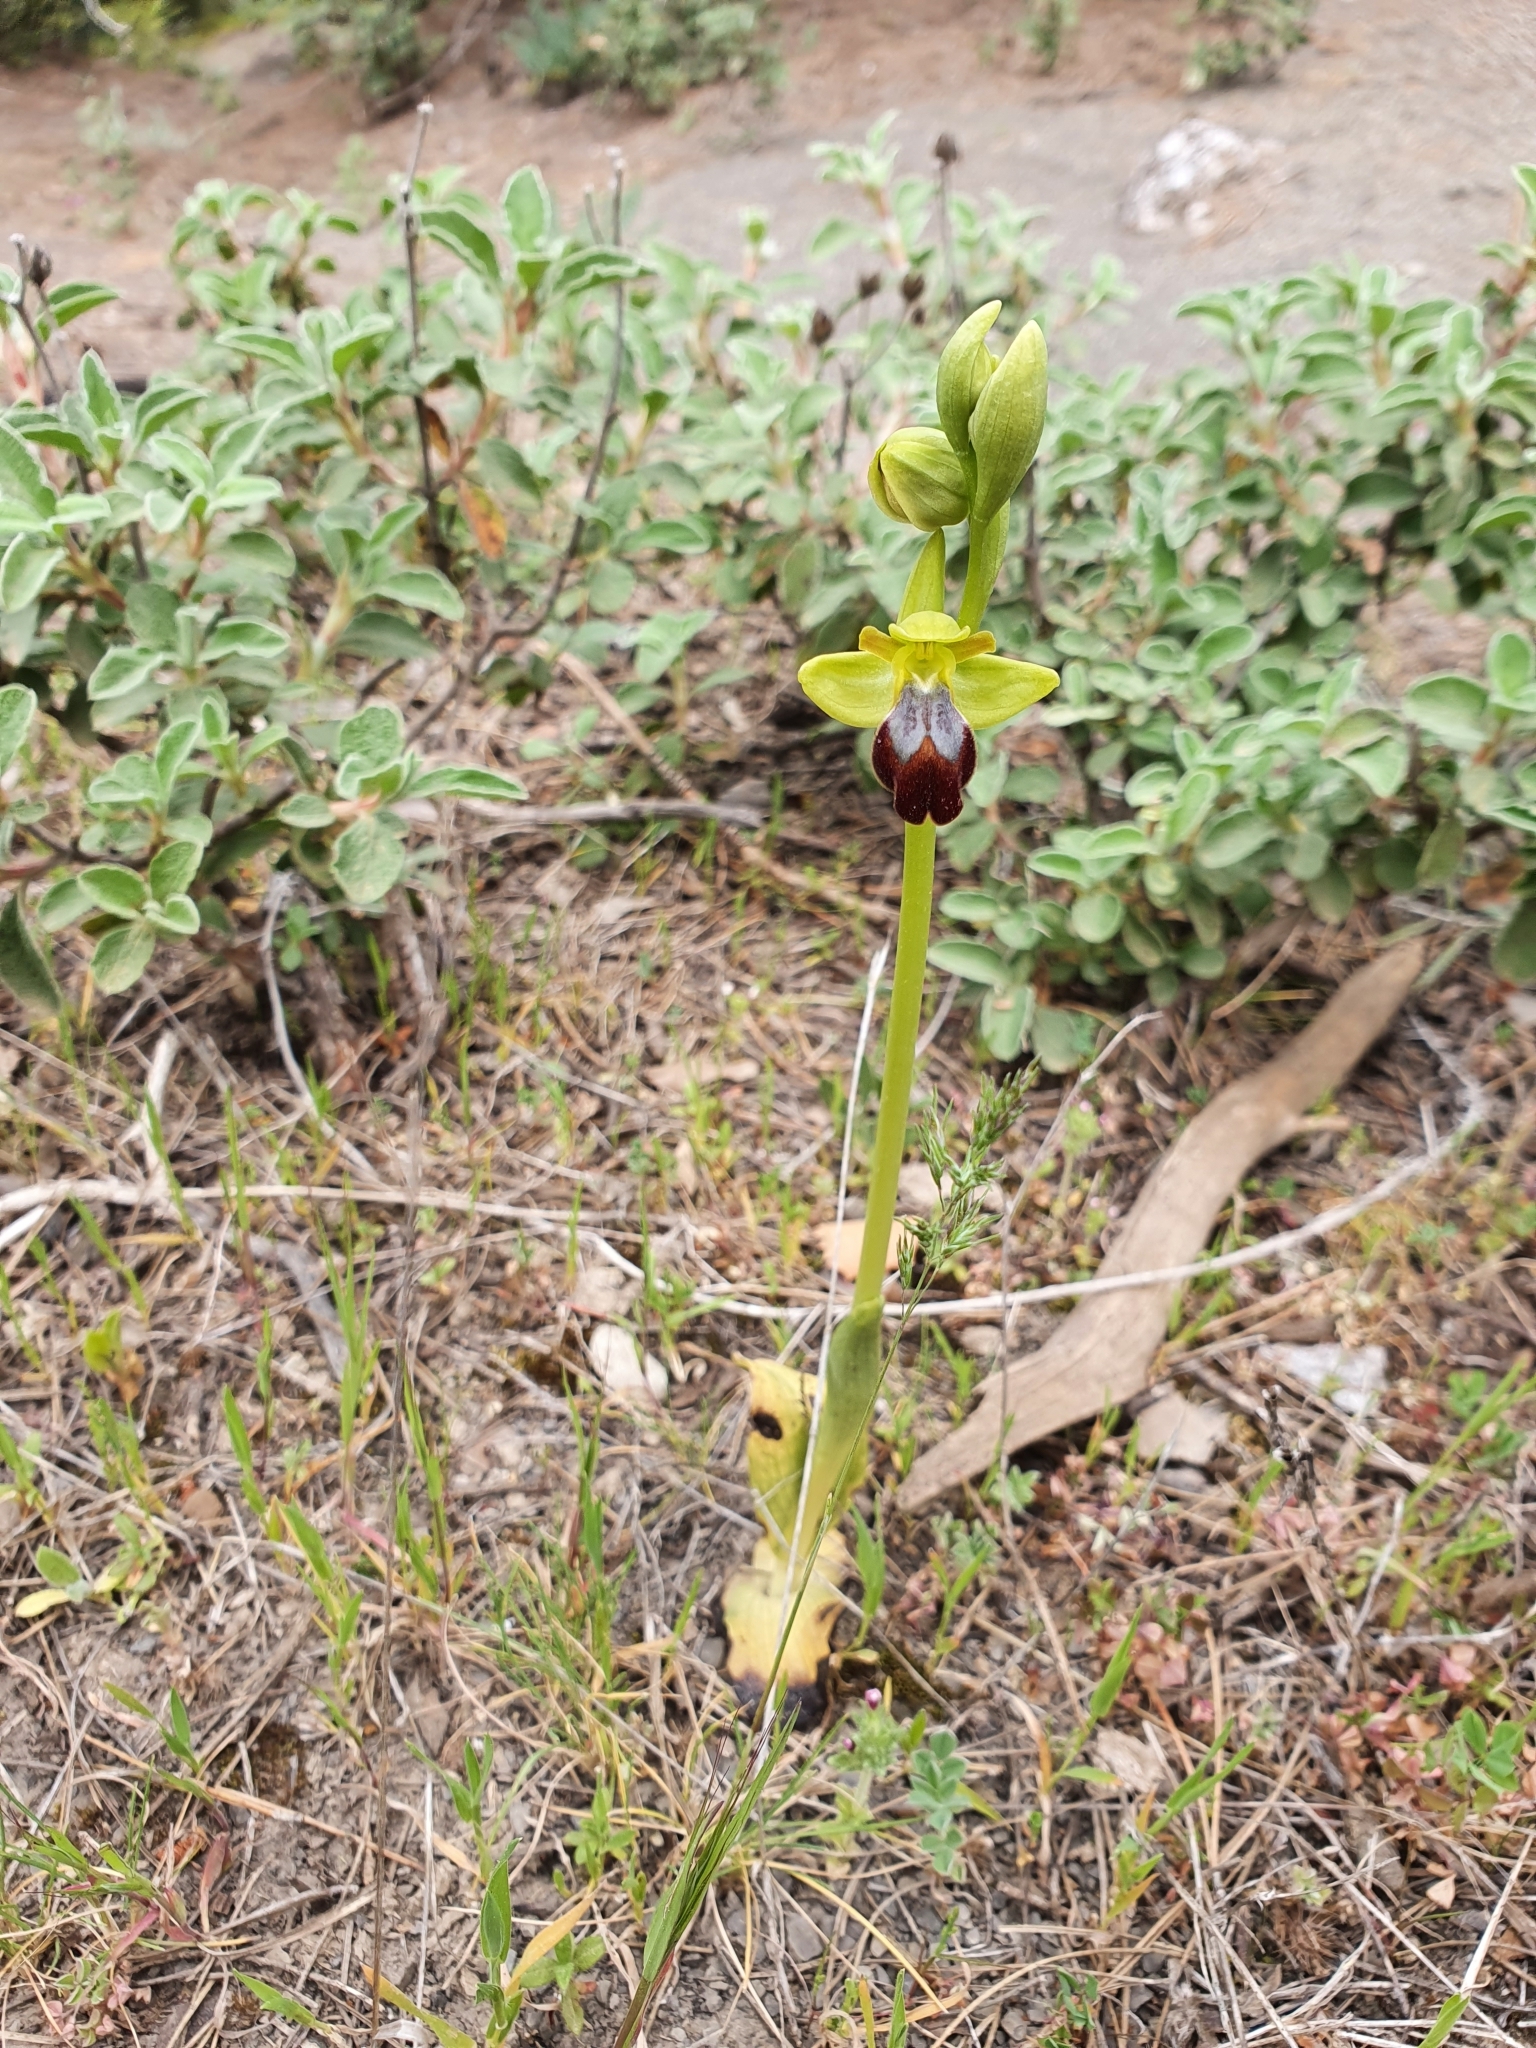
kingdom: Plantae
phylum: Tracheophyta
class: Liliopsida
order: Asparagales
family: Orchidaceae
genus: Ophrys
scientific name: Ophrys fusca
